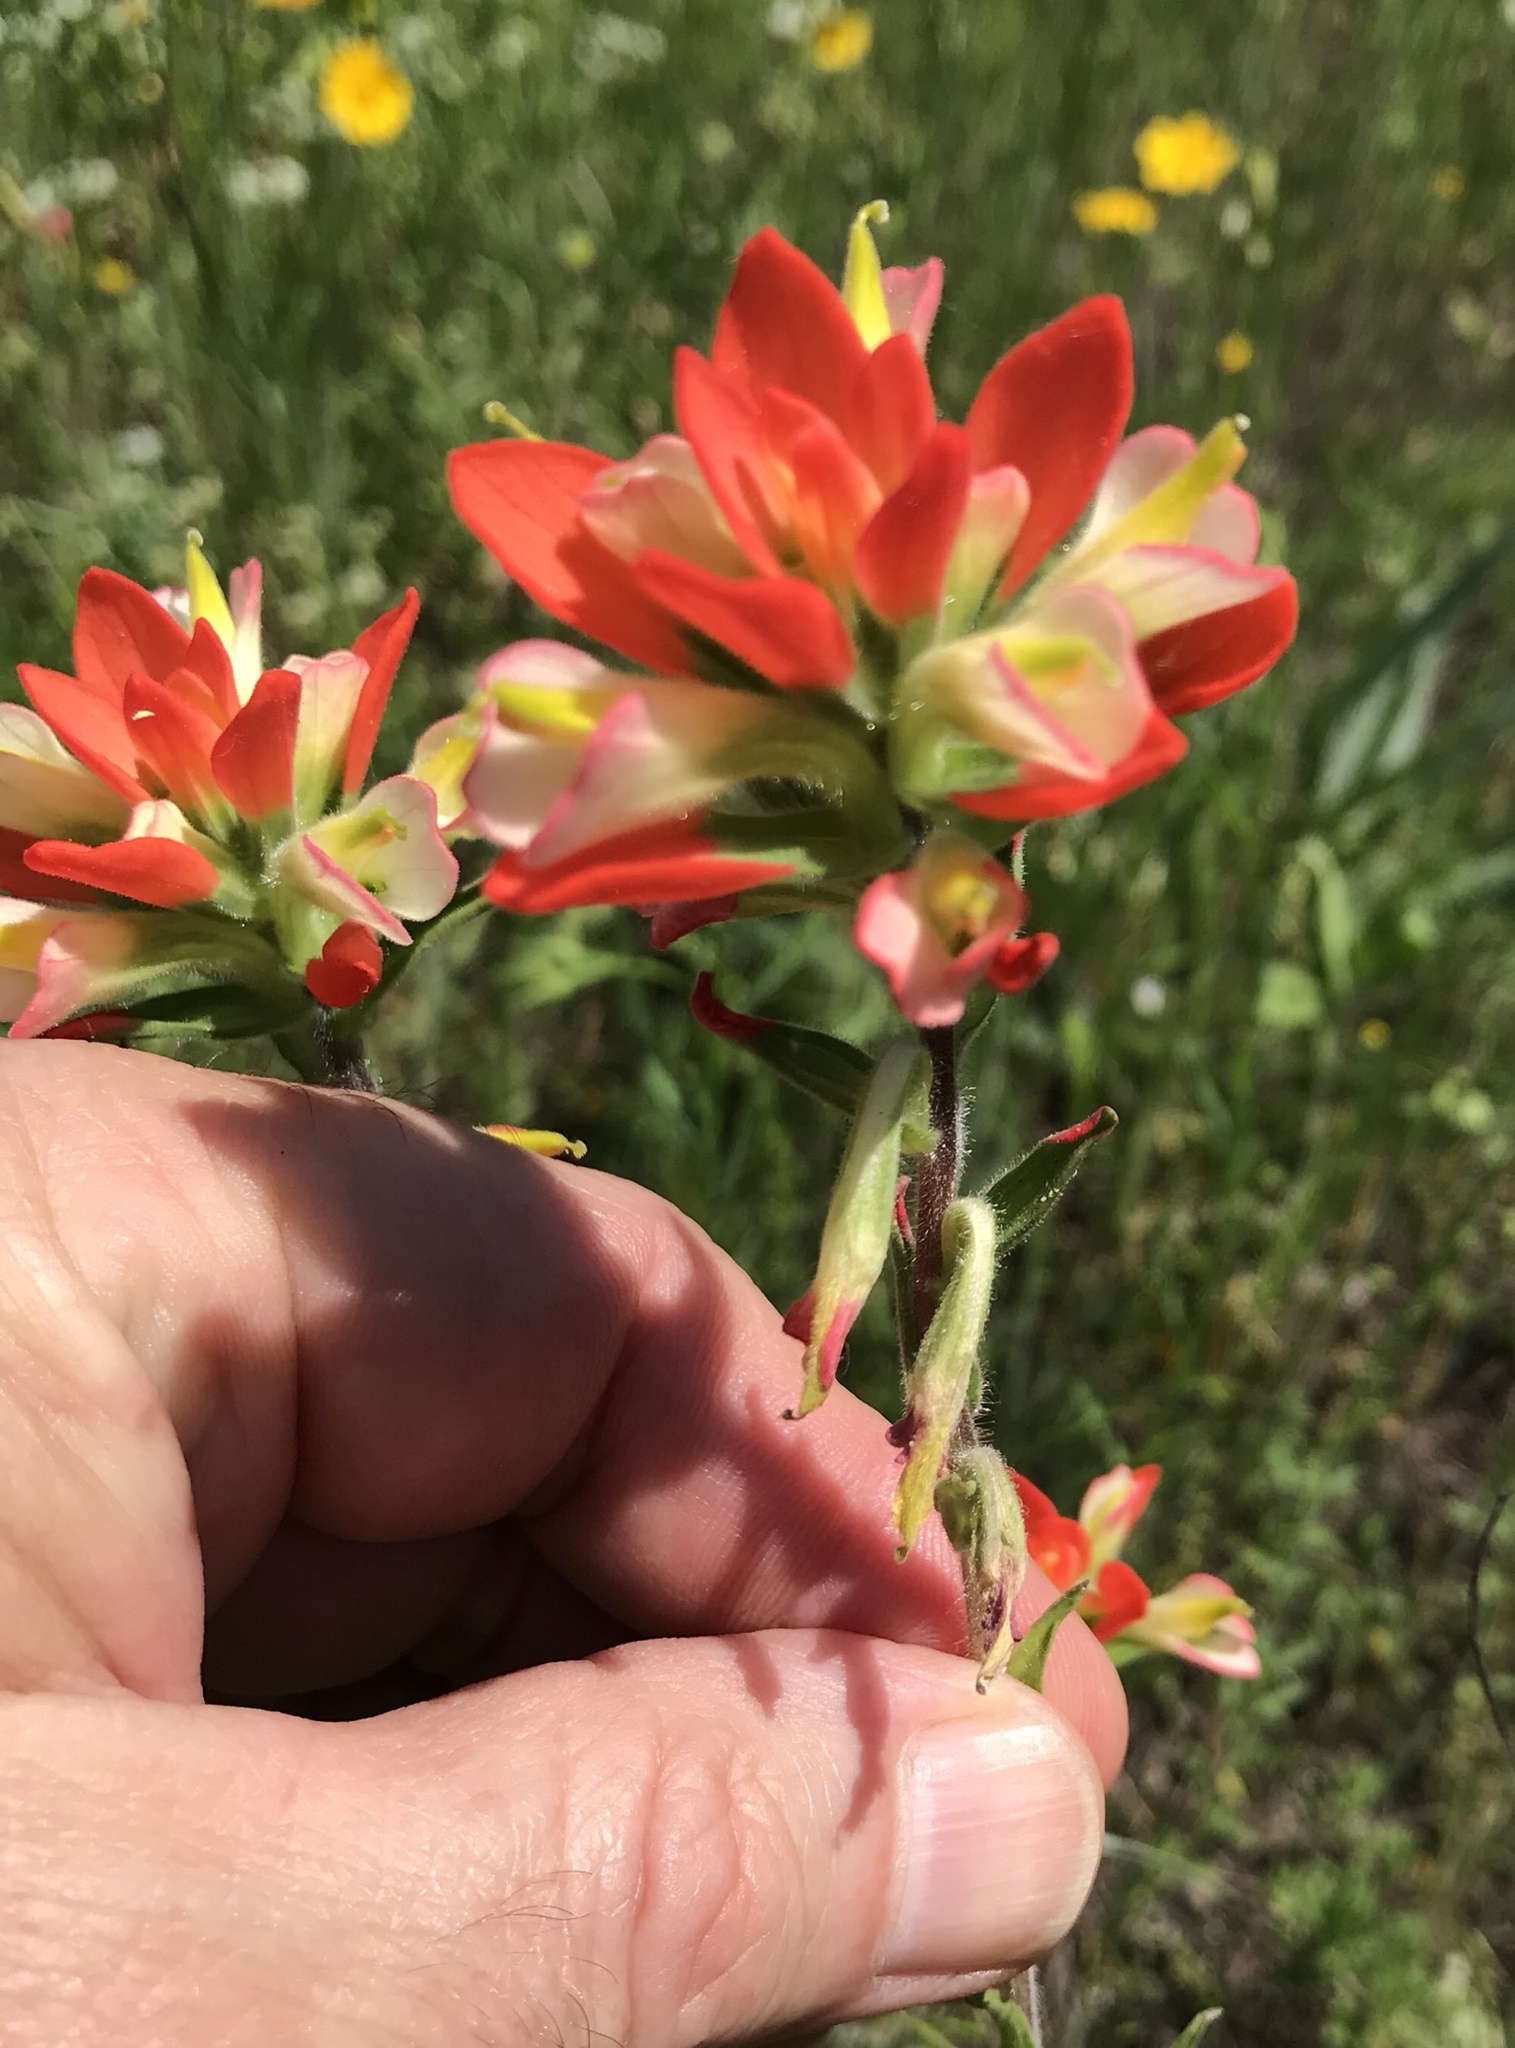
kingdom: Plantae
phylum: Tracheophyta
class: Magnoliopsida
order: Lamiales
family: Orobanchaceae
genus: Castilleja
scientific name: Castilleja indivisa
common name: Texas paintbrush
